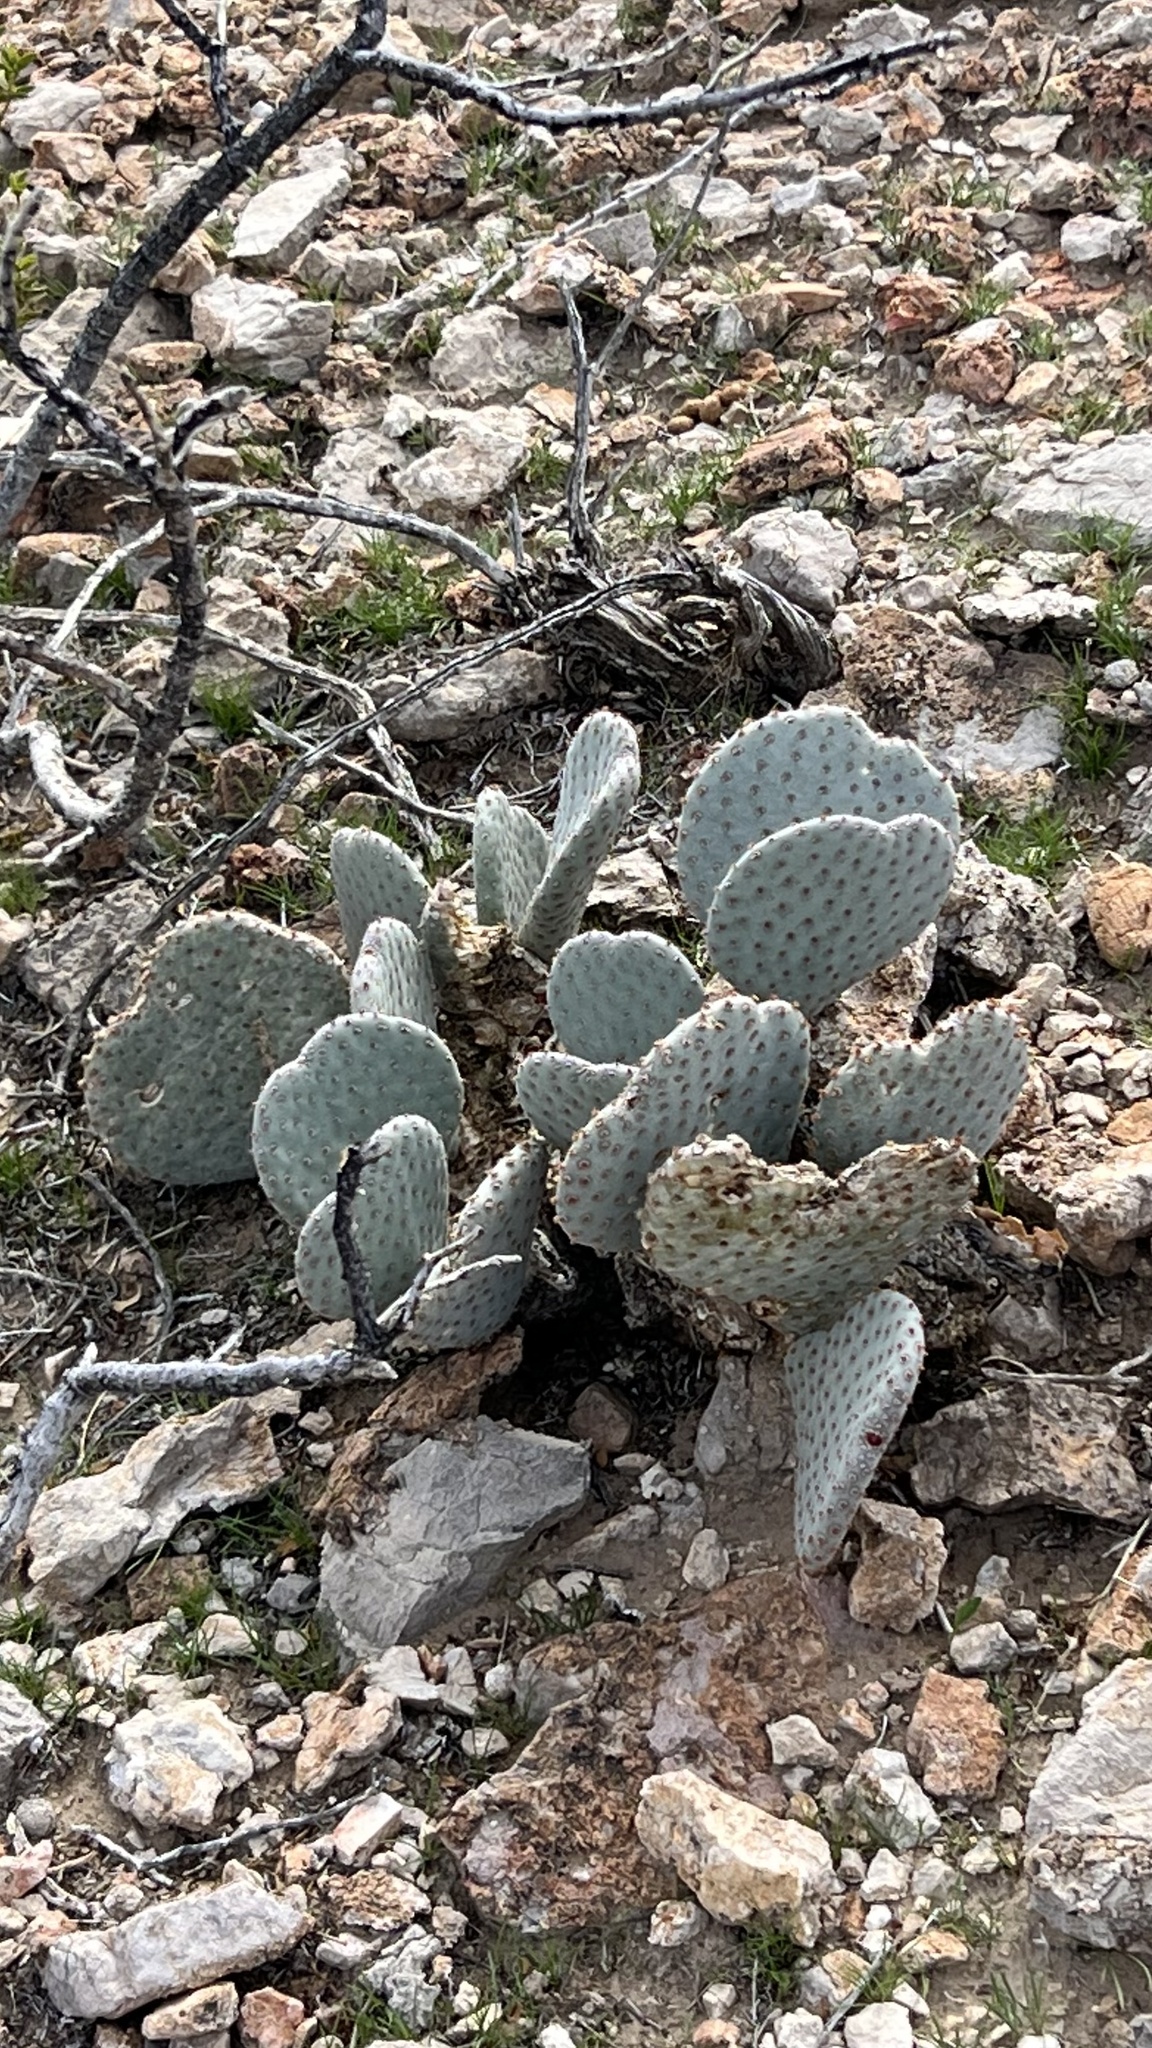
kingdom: Plantae
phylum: Tracheophyta
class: Magnoliopsida
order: Caryophyllales
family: Cactaceae
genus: Opuntia
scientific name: Opuntia basilaris
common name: Beavertail prickly-pear
